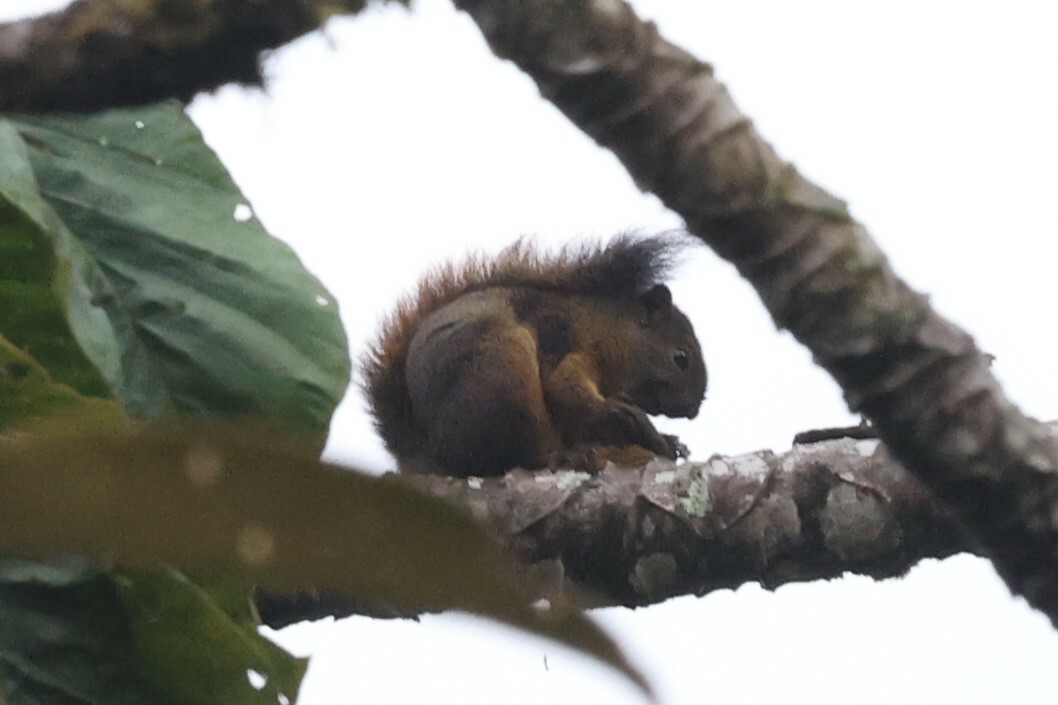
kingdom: Animalia
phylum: Chordata
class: Mammalia
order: Rodentia
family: Sciuridae
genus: Sciurus
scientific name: Sciurus granatensis
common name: Red-tailed squirrel
